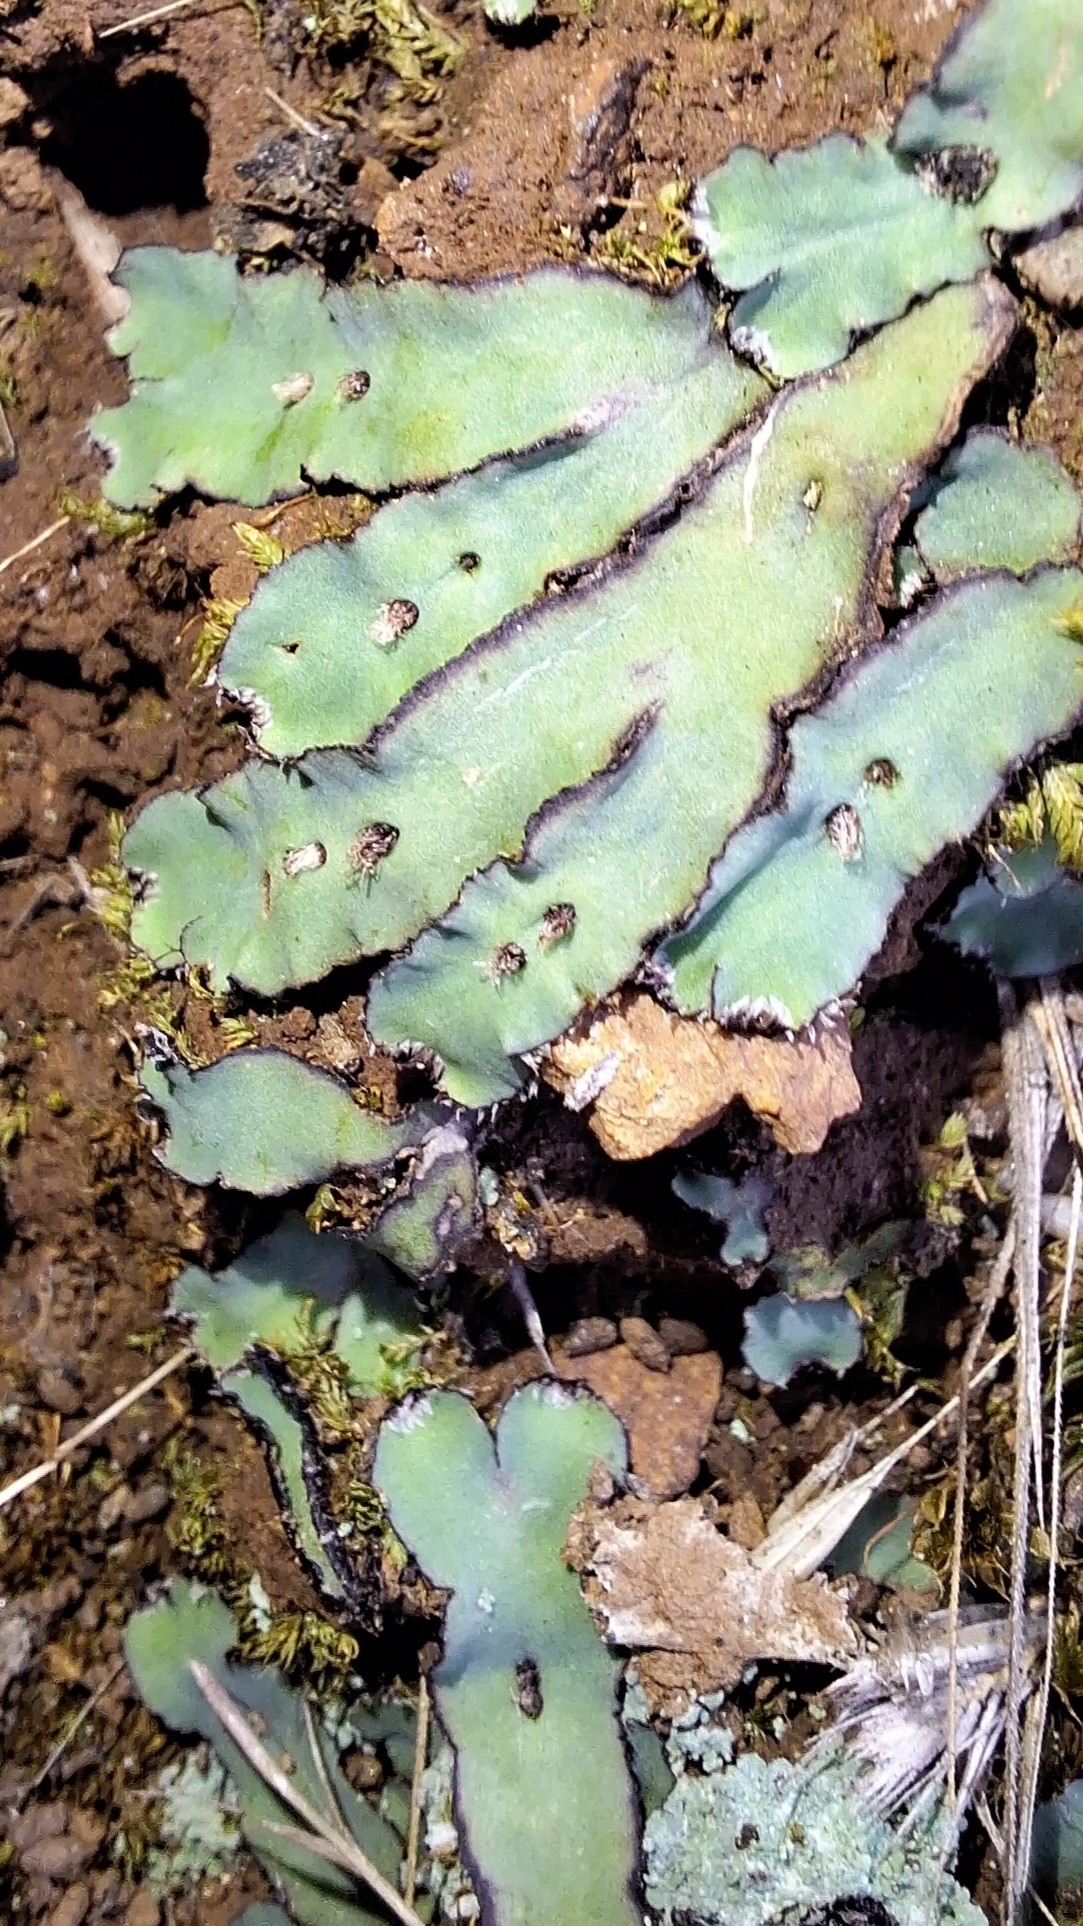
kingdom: Plantae
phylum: Marchantiophyta
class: Marchantiopsida
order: Marchantiales
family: Aytoniaceae
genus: Plagiochasma
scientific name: Plagiochasma rupestre
